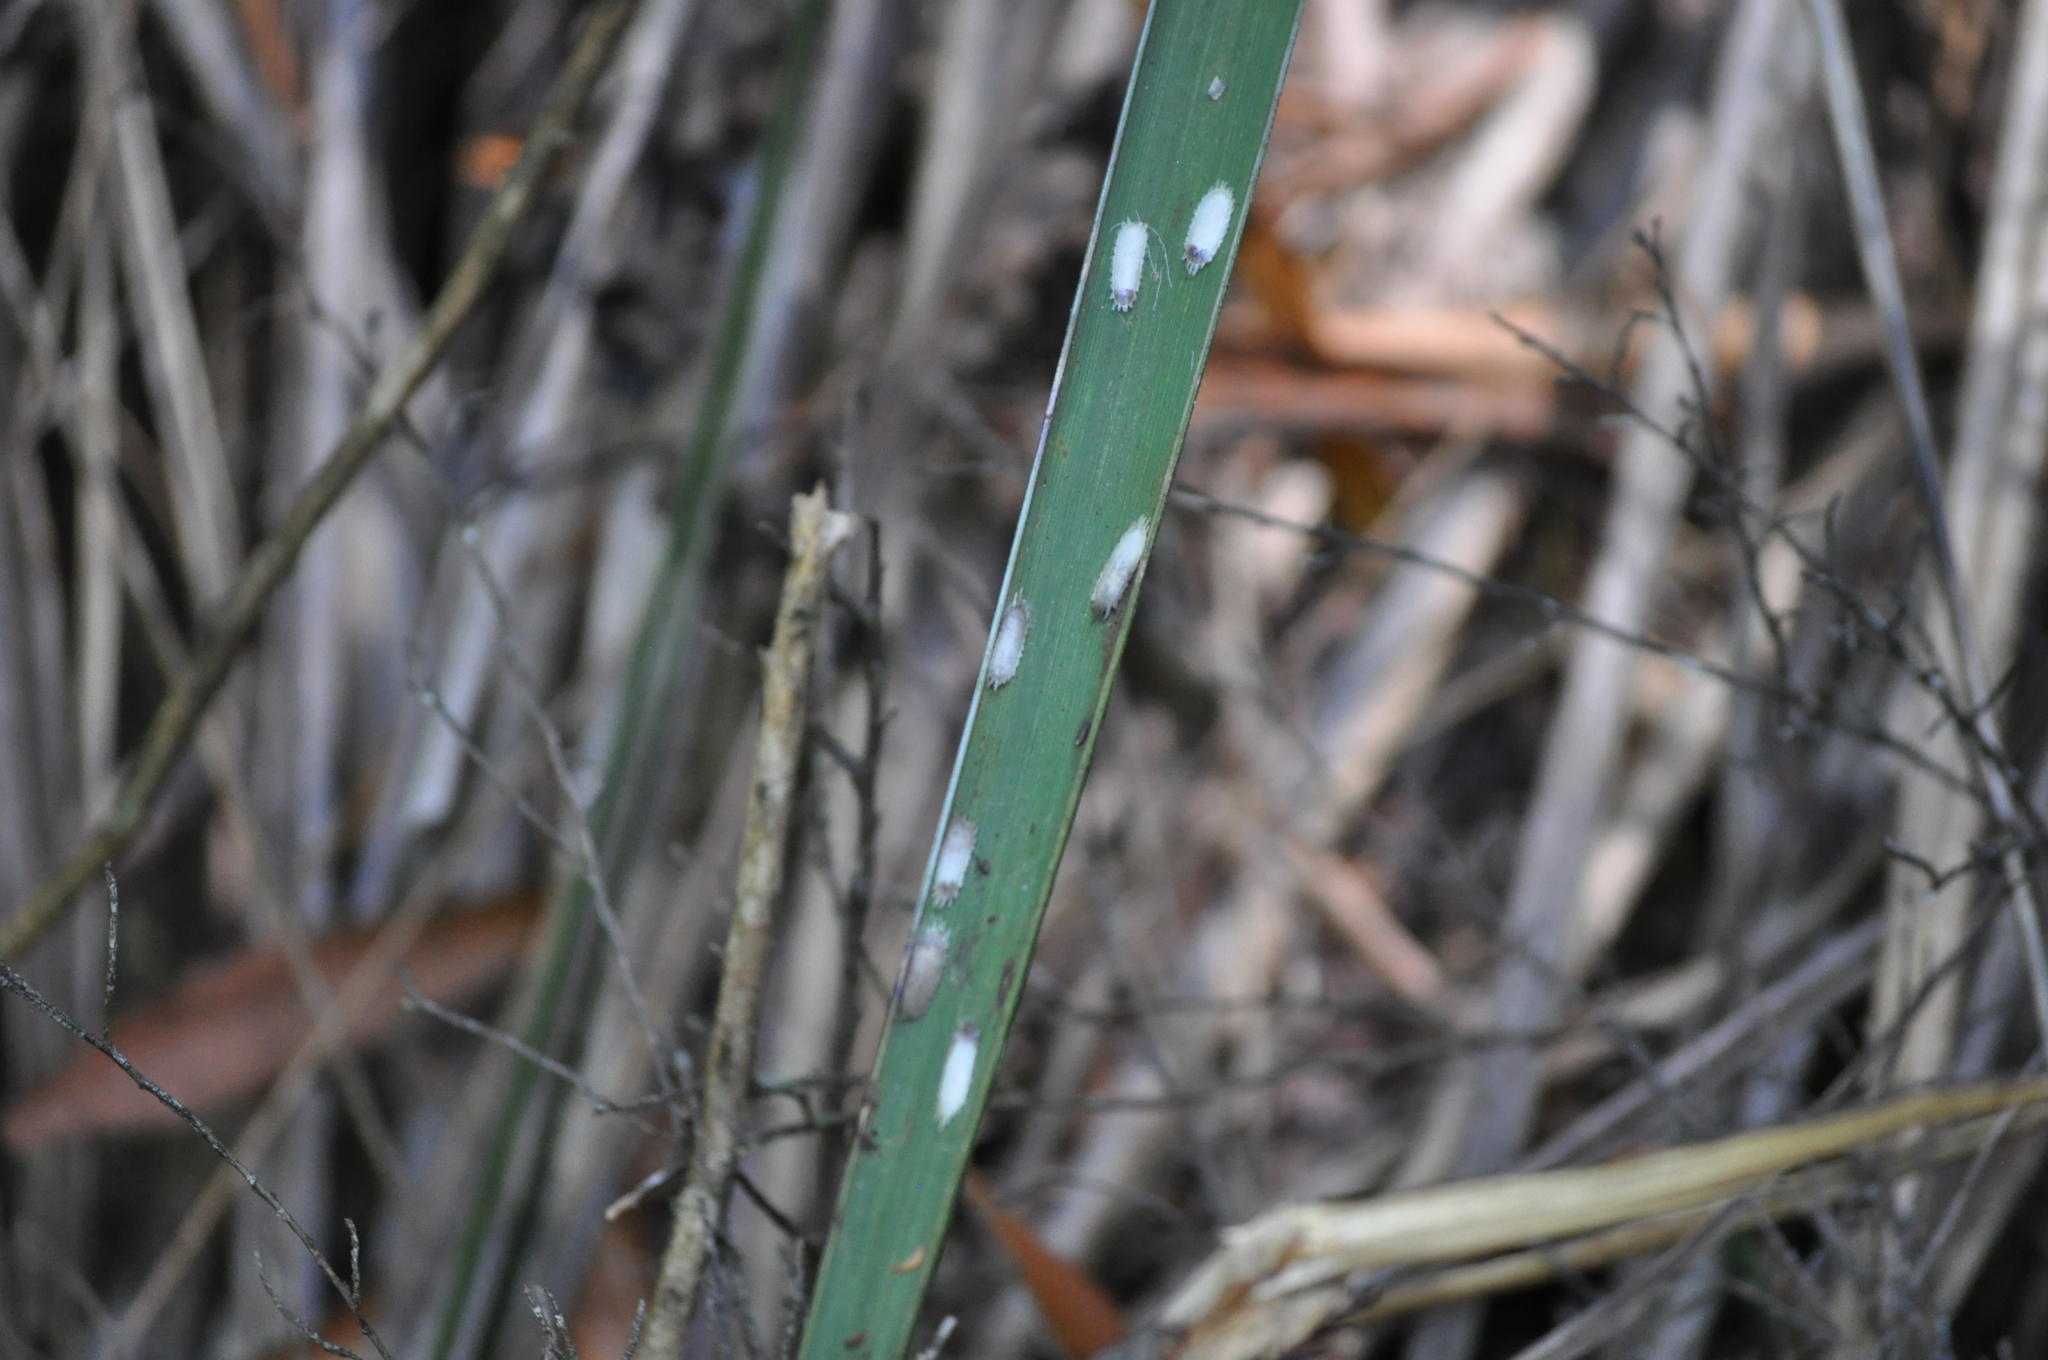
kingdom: Animalia
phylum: Arthropoda
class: Insecta
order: Hemiptera
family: Coccidae
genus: Kalasiris
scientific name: Kalasiris martini
